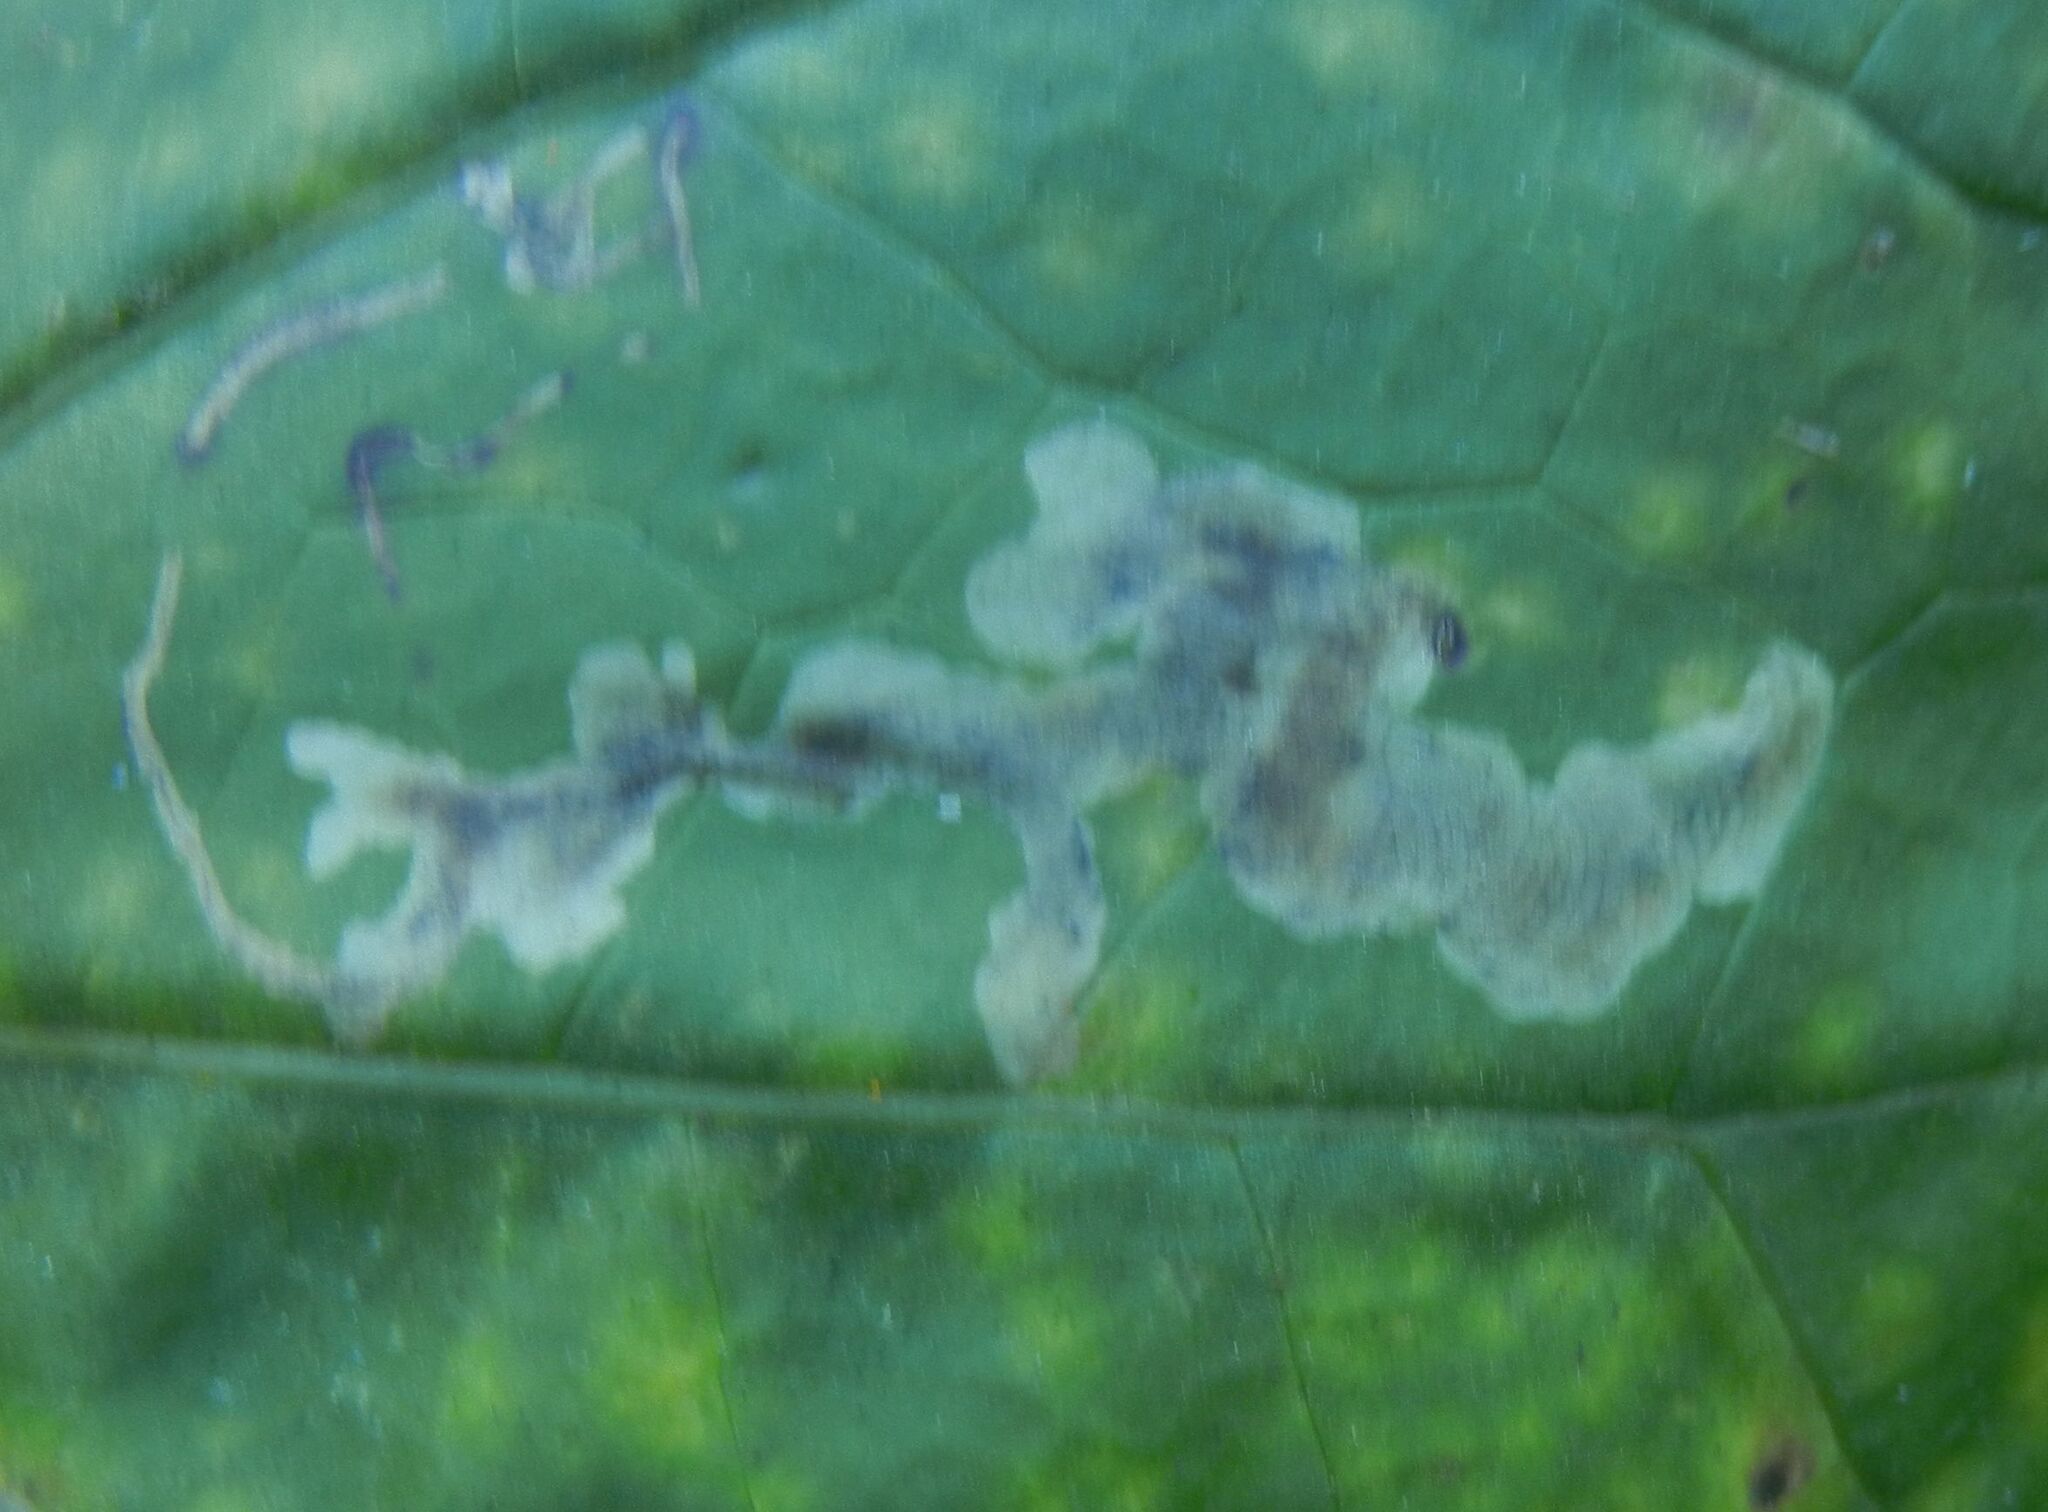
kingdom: Animalia
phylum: Arthropoda
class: Insecta
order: Diptera
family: Tephritidae
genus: Acidia
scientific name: Acidia cognata
